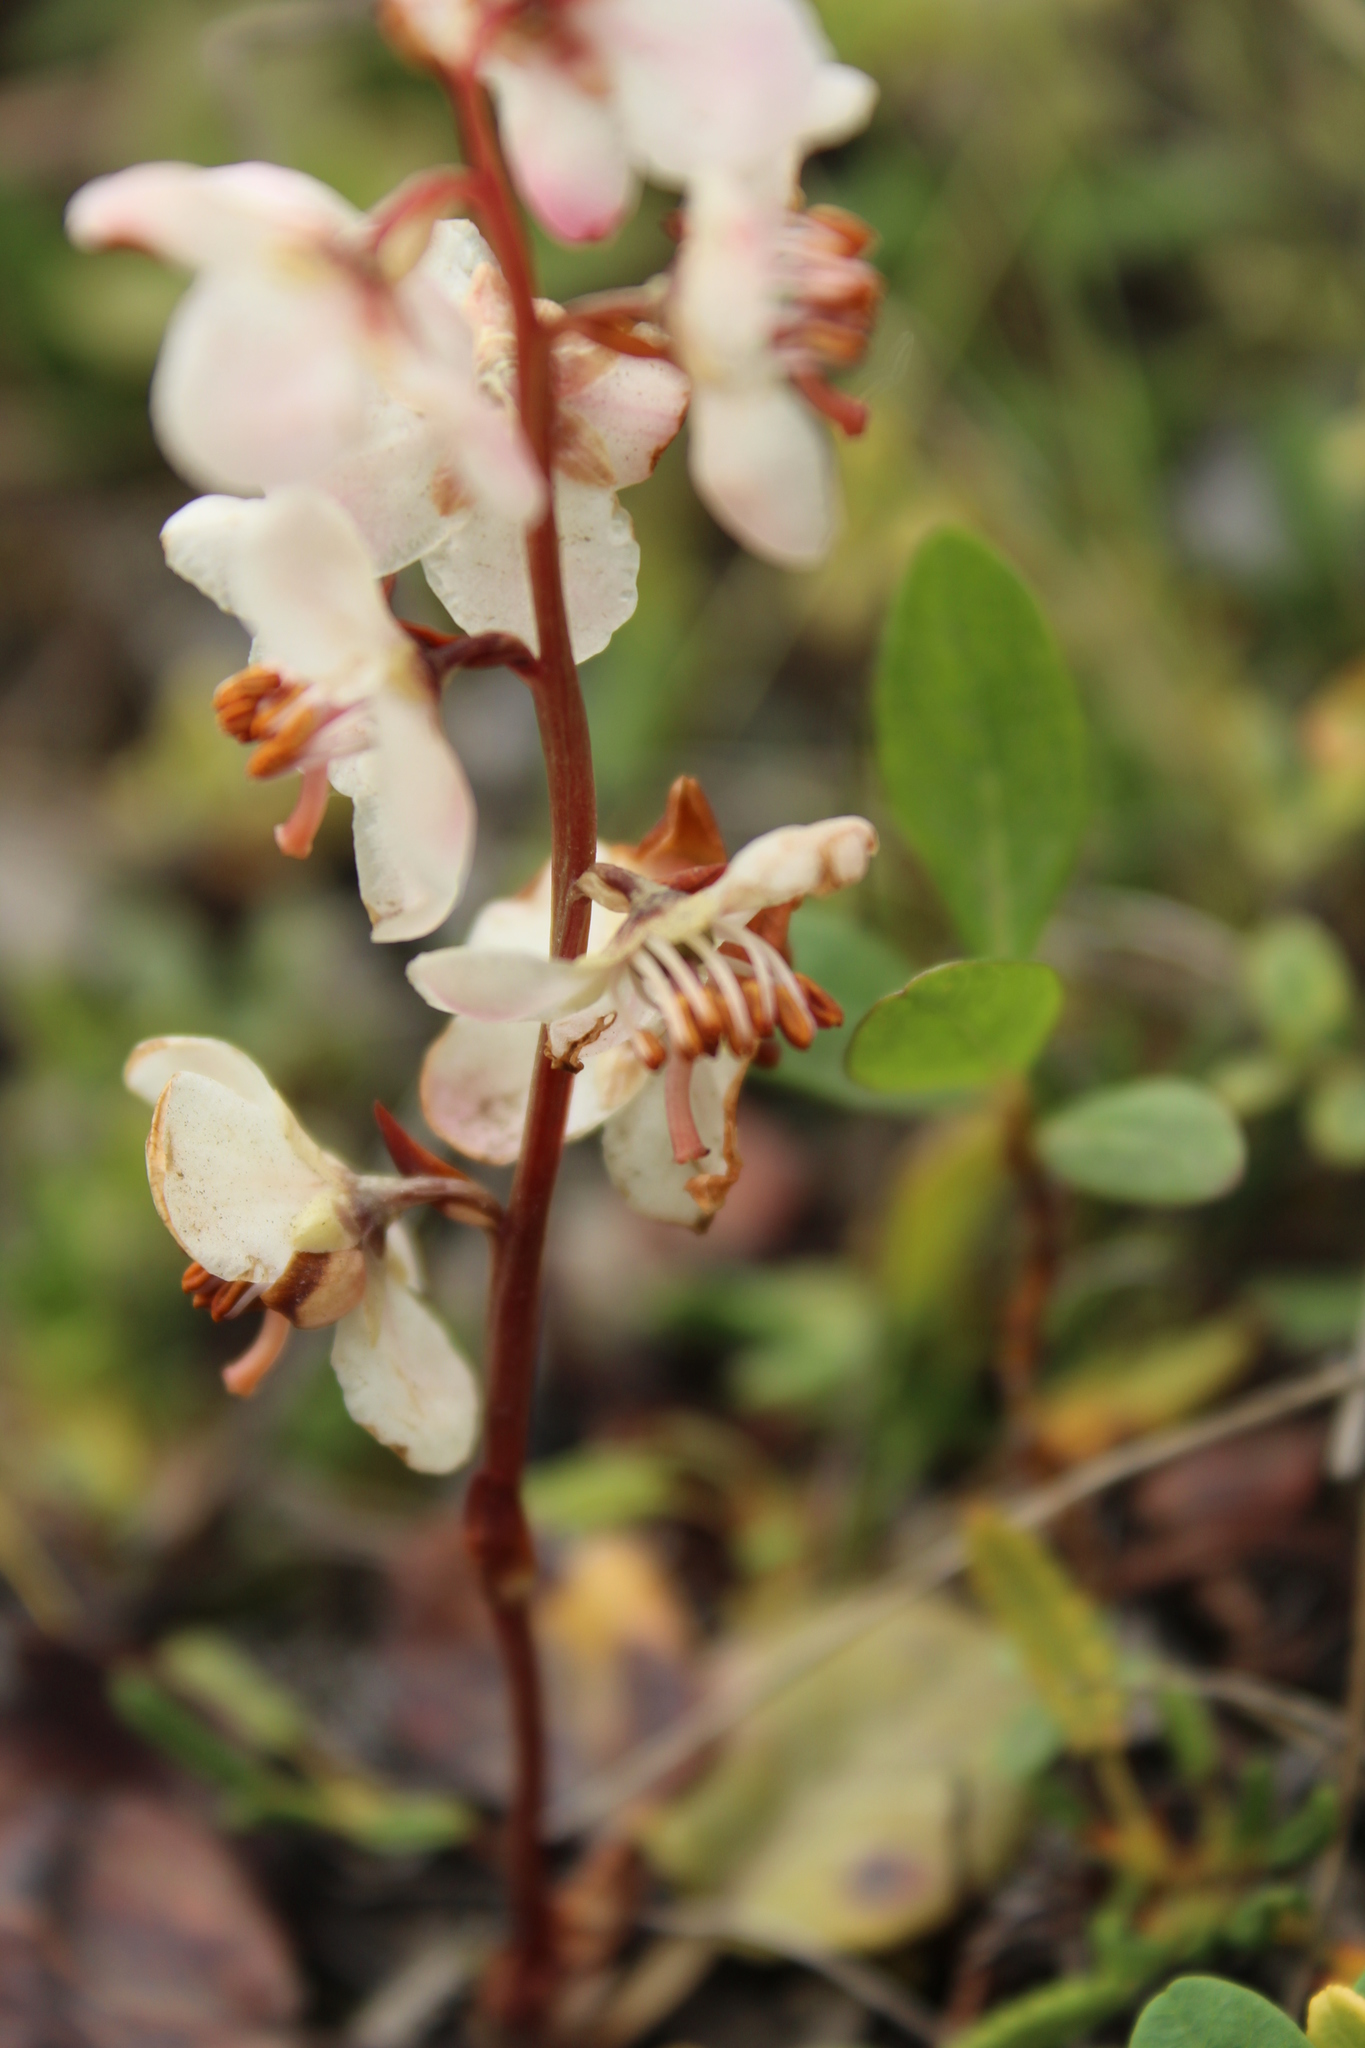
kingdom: Plantae
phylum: Tracheophyta
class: Magnoliopsida
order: Ericales
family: Ericaceae
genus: Pyrola
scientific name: Pyrola grandiflora
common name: Arctic pyrola
